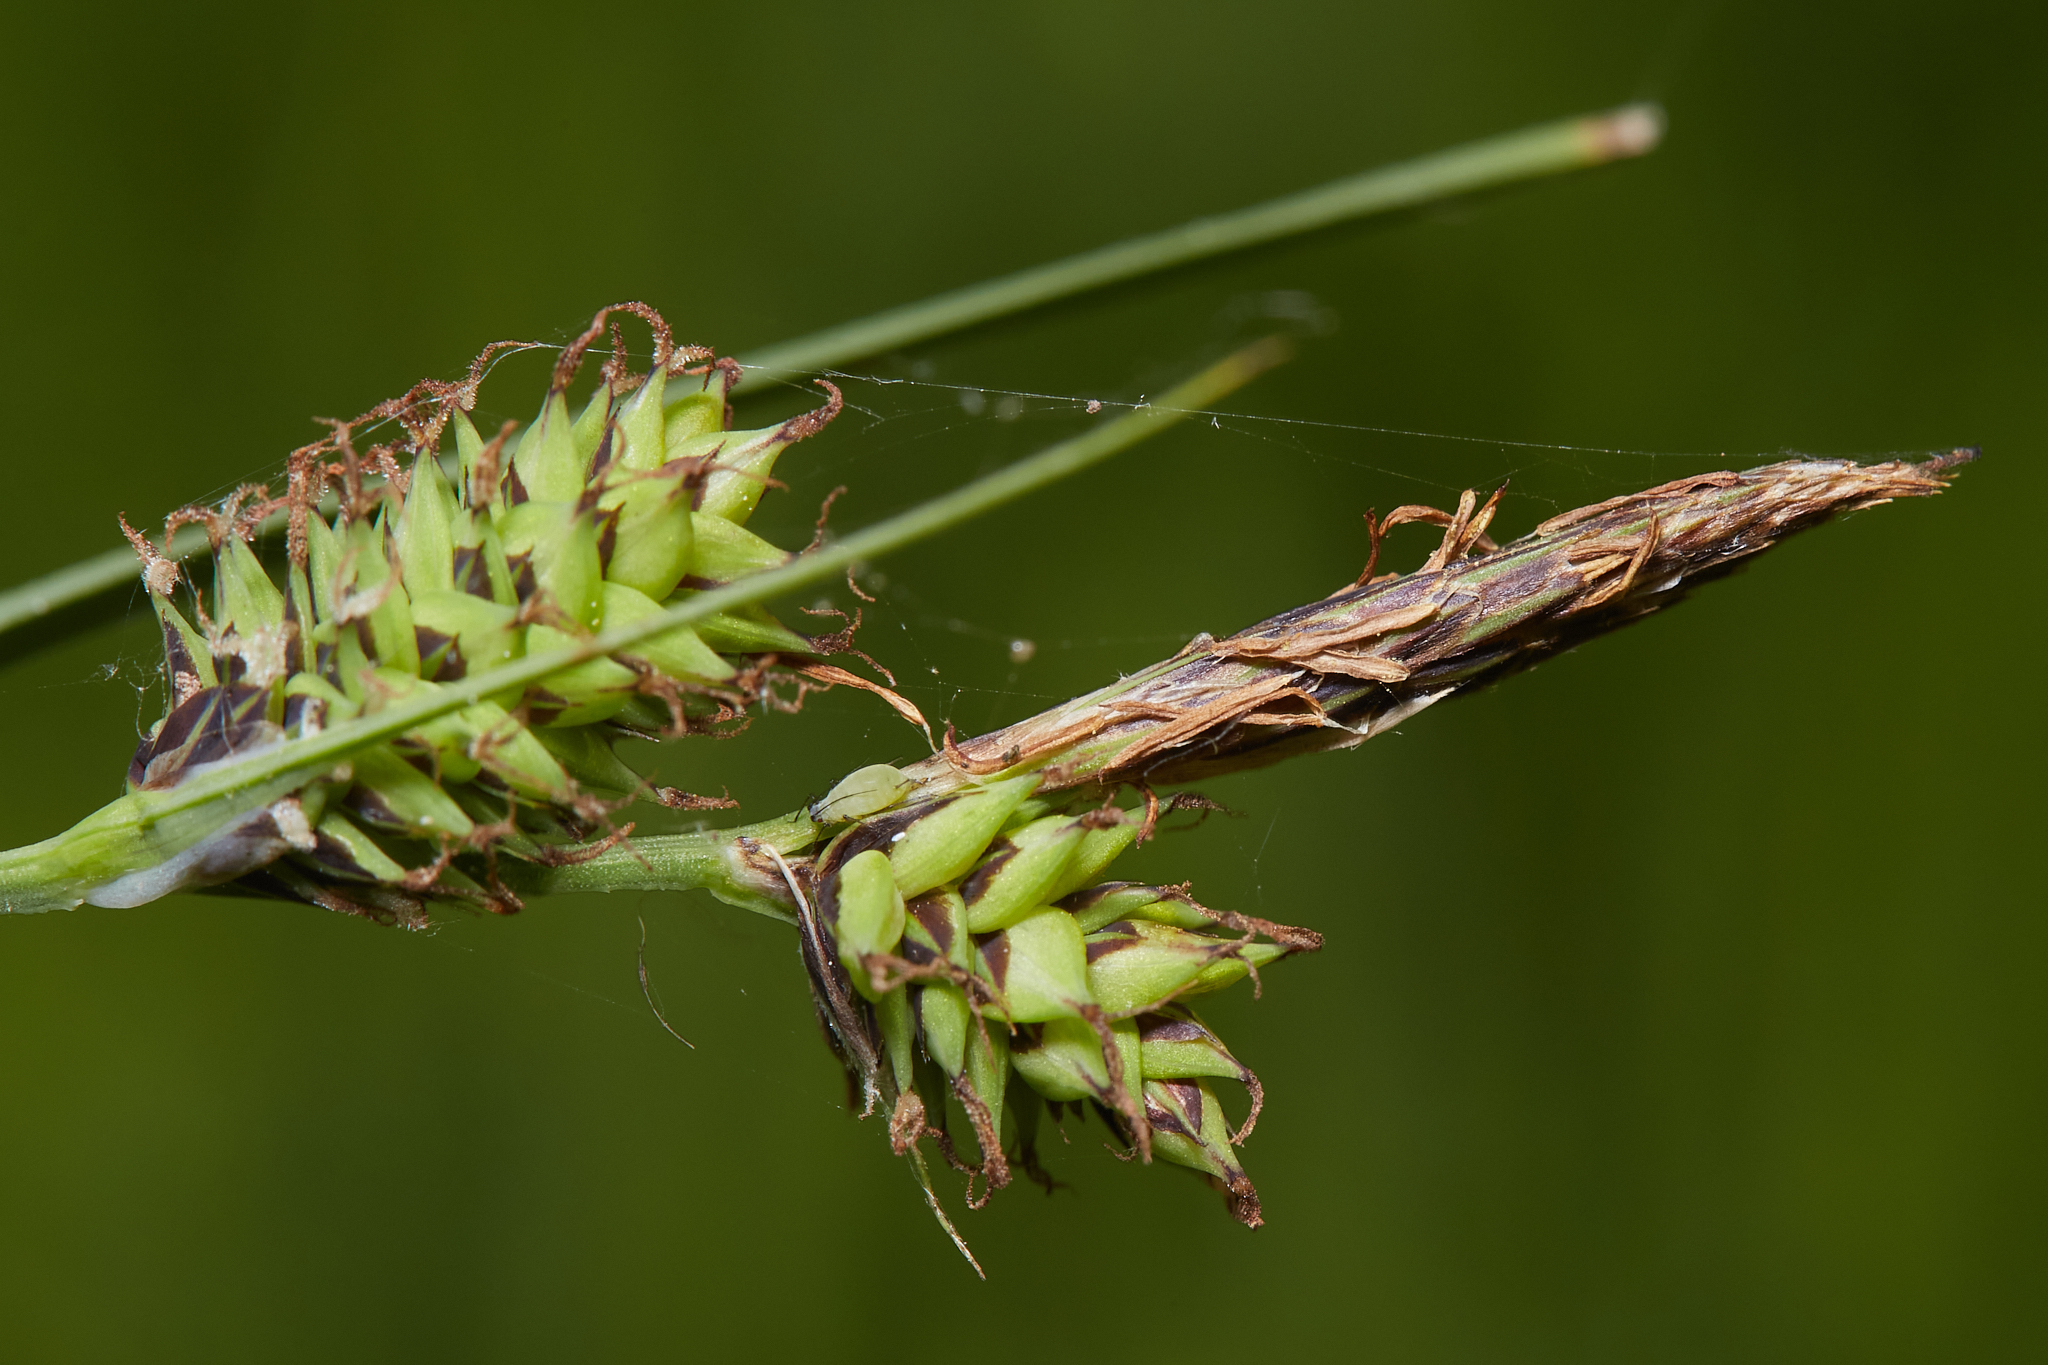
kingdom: Plantae
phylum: Tracheophyta
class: Liliopsida
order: Poales
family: Cyperaceae
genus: Carex
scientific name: Carex serratodens
